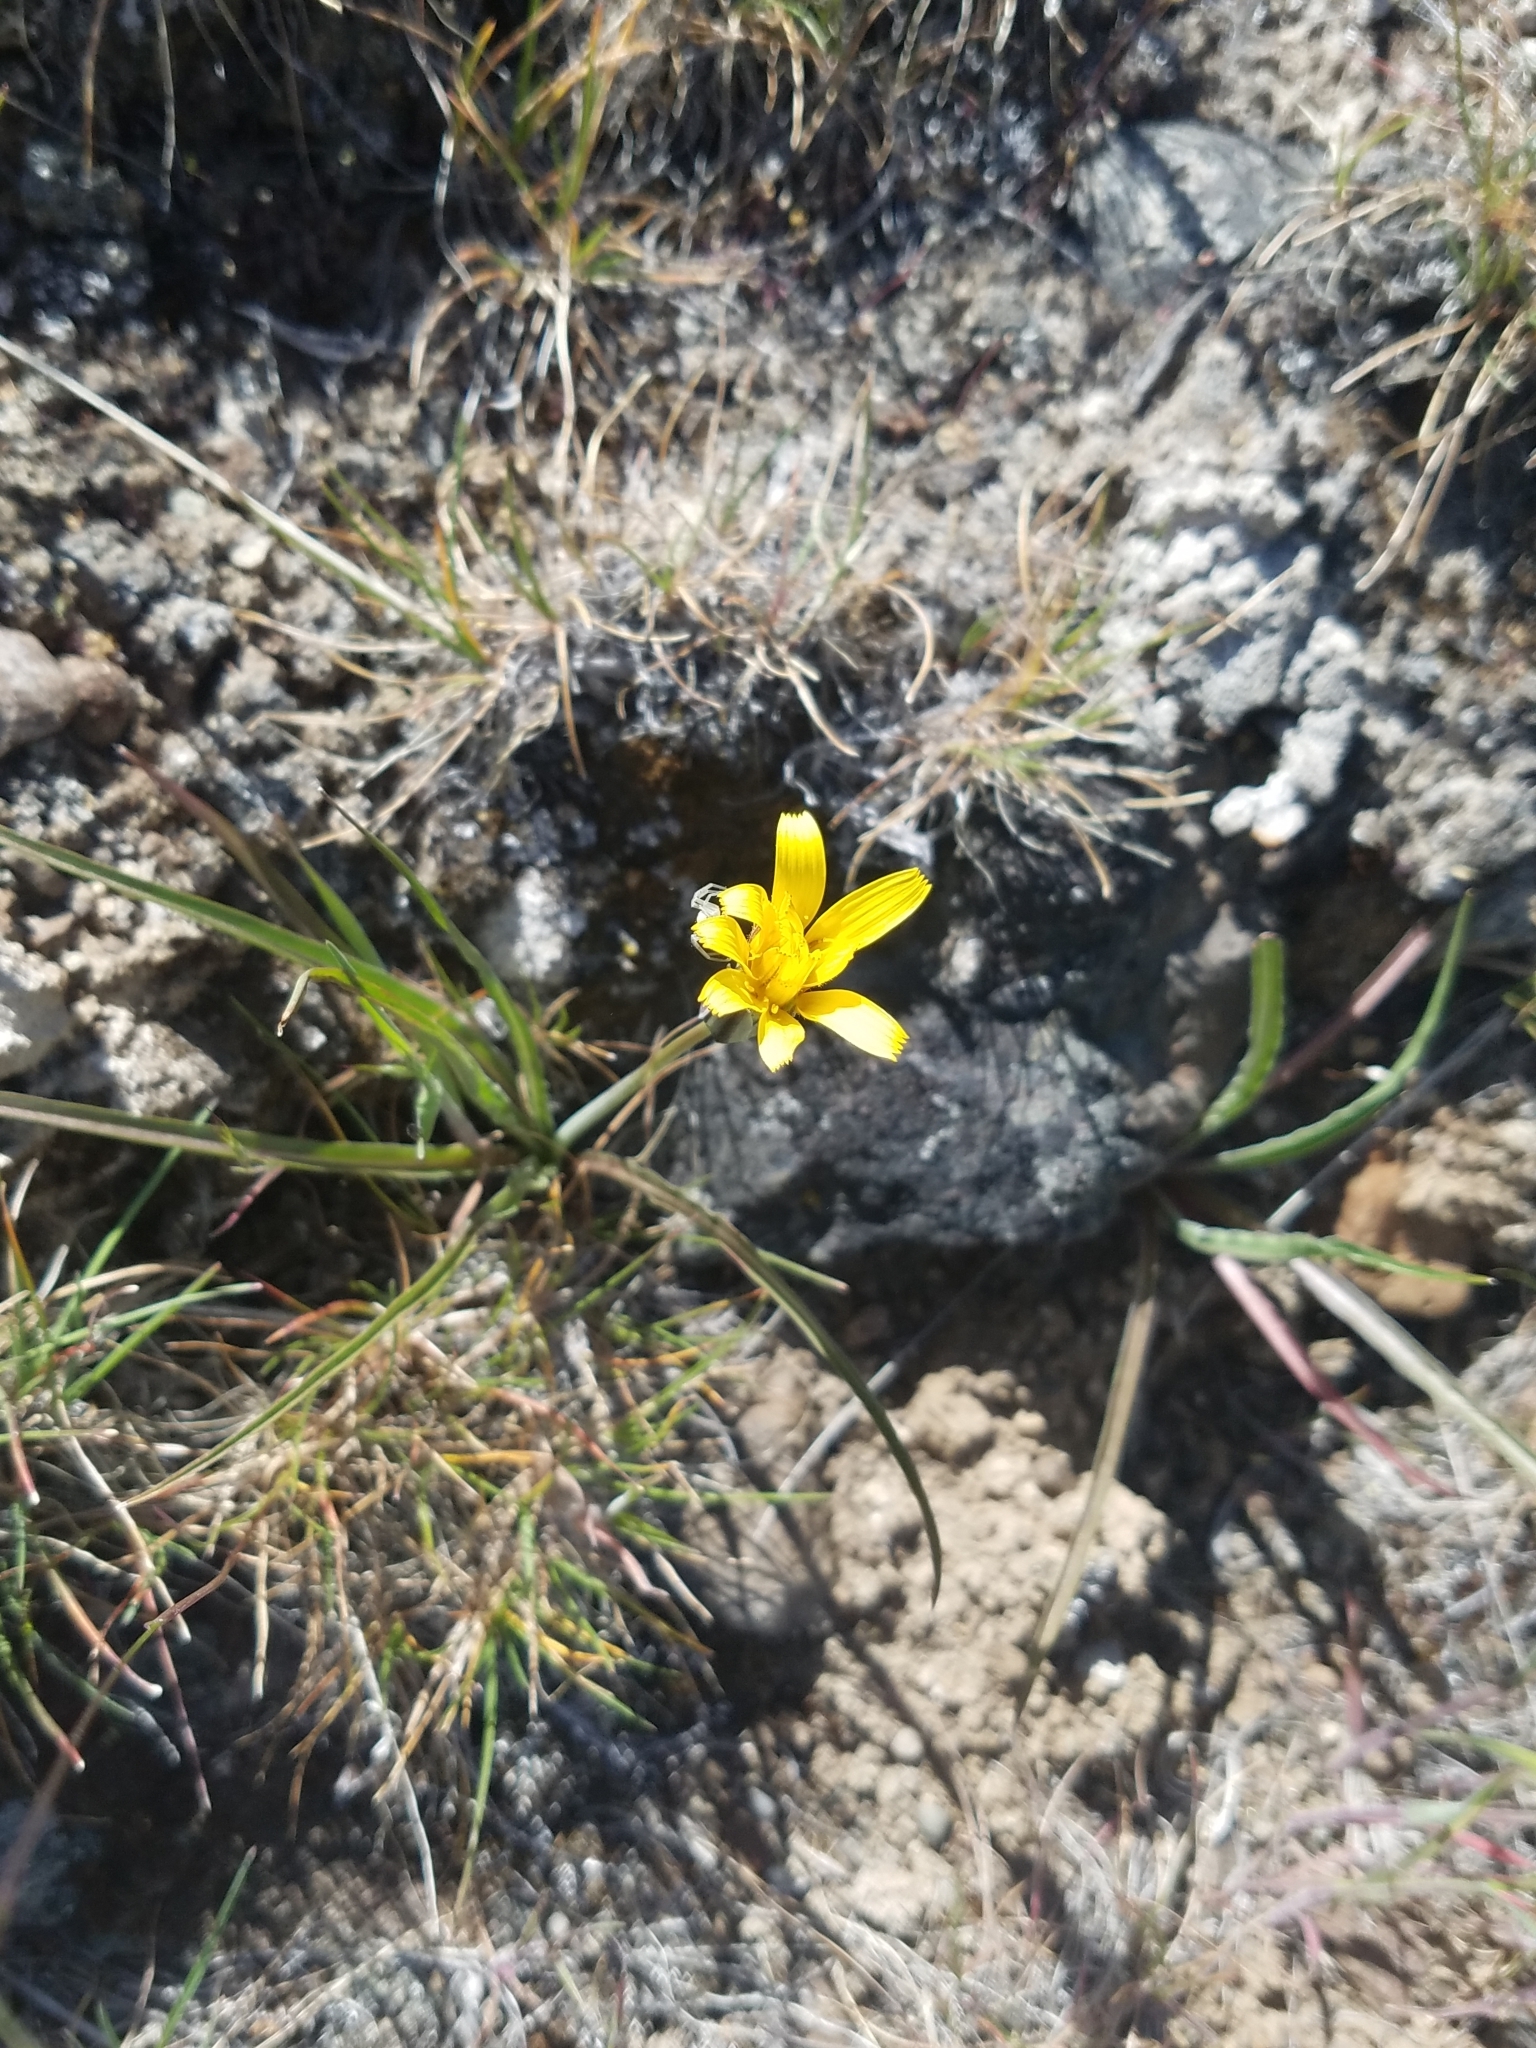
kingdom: Plantae
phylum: Tracheophyta
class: Magnoliopsida
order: Asterales
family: Asteraceae
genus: Microseris
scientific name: Microseris troximoides
